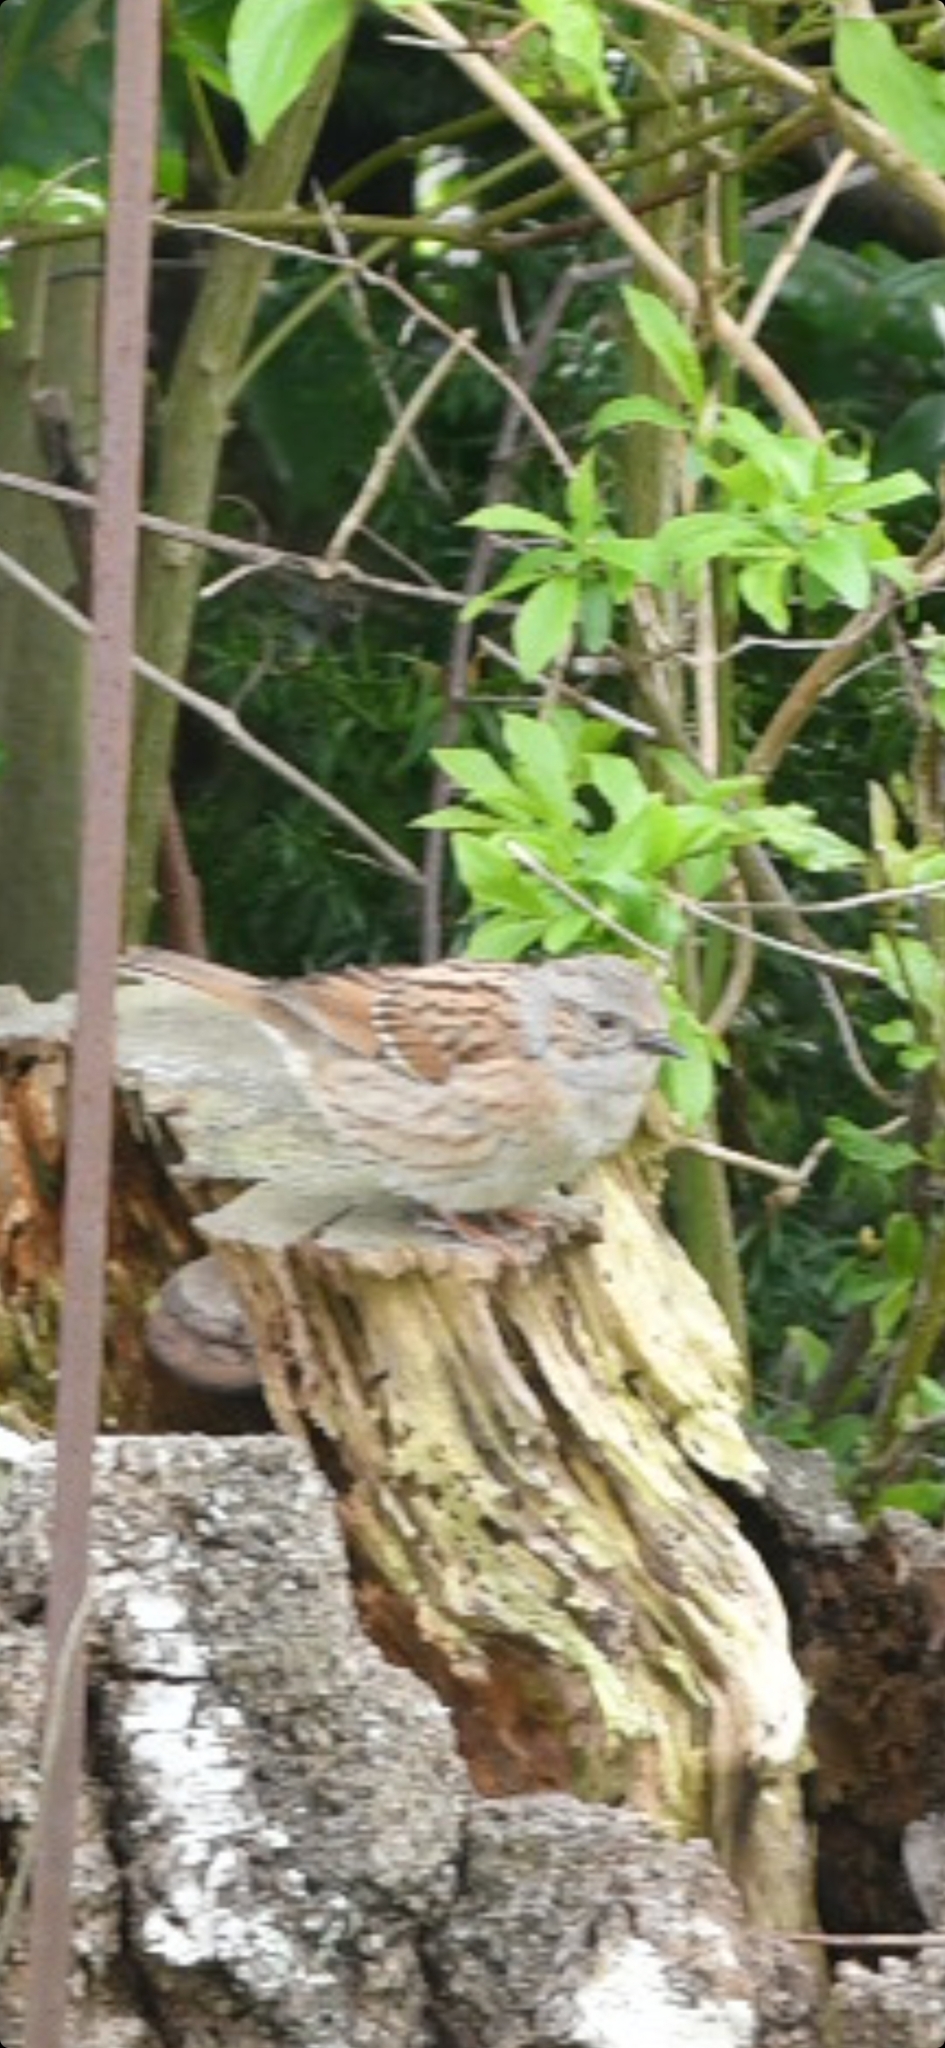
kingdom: Animalia
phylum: Chordata
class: Aves
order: Passeriformes
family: Prunellidae
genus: Prunella
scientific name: Prunella modularis
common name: Dunnock
